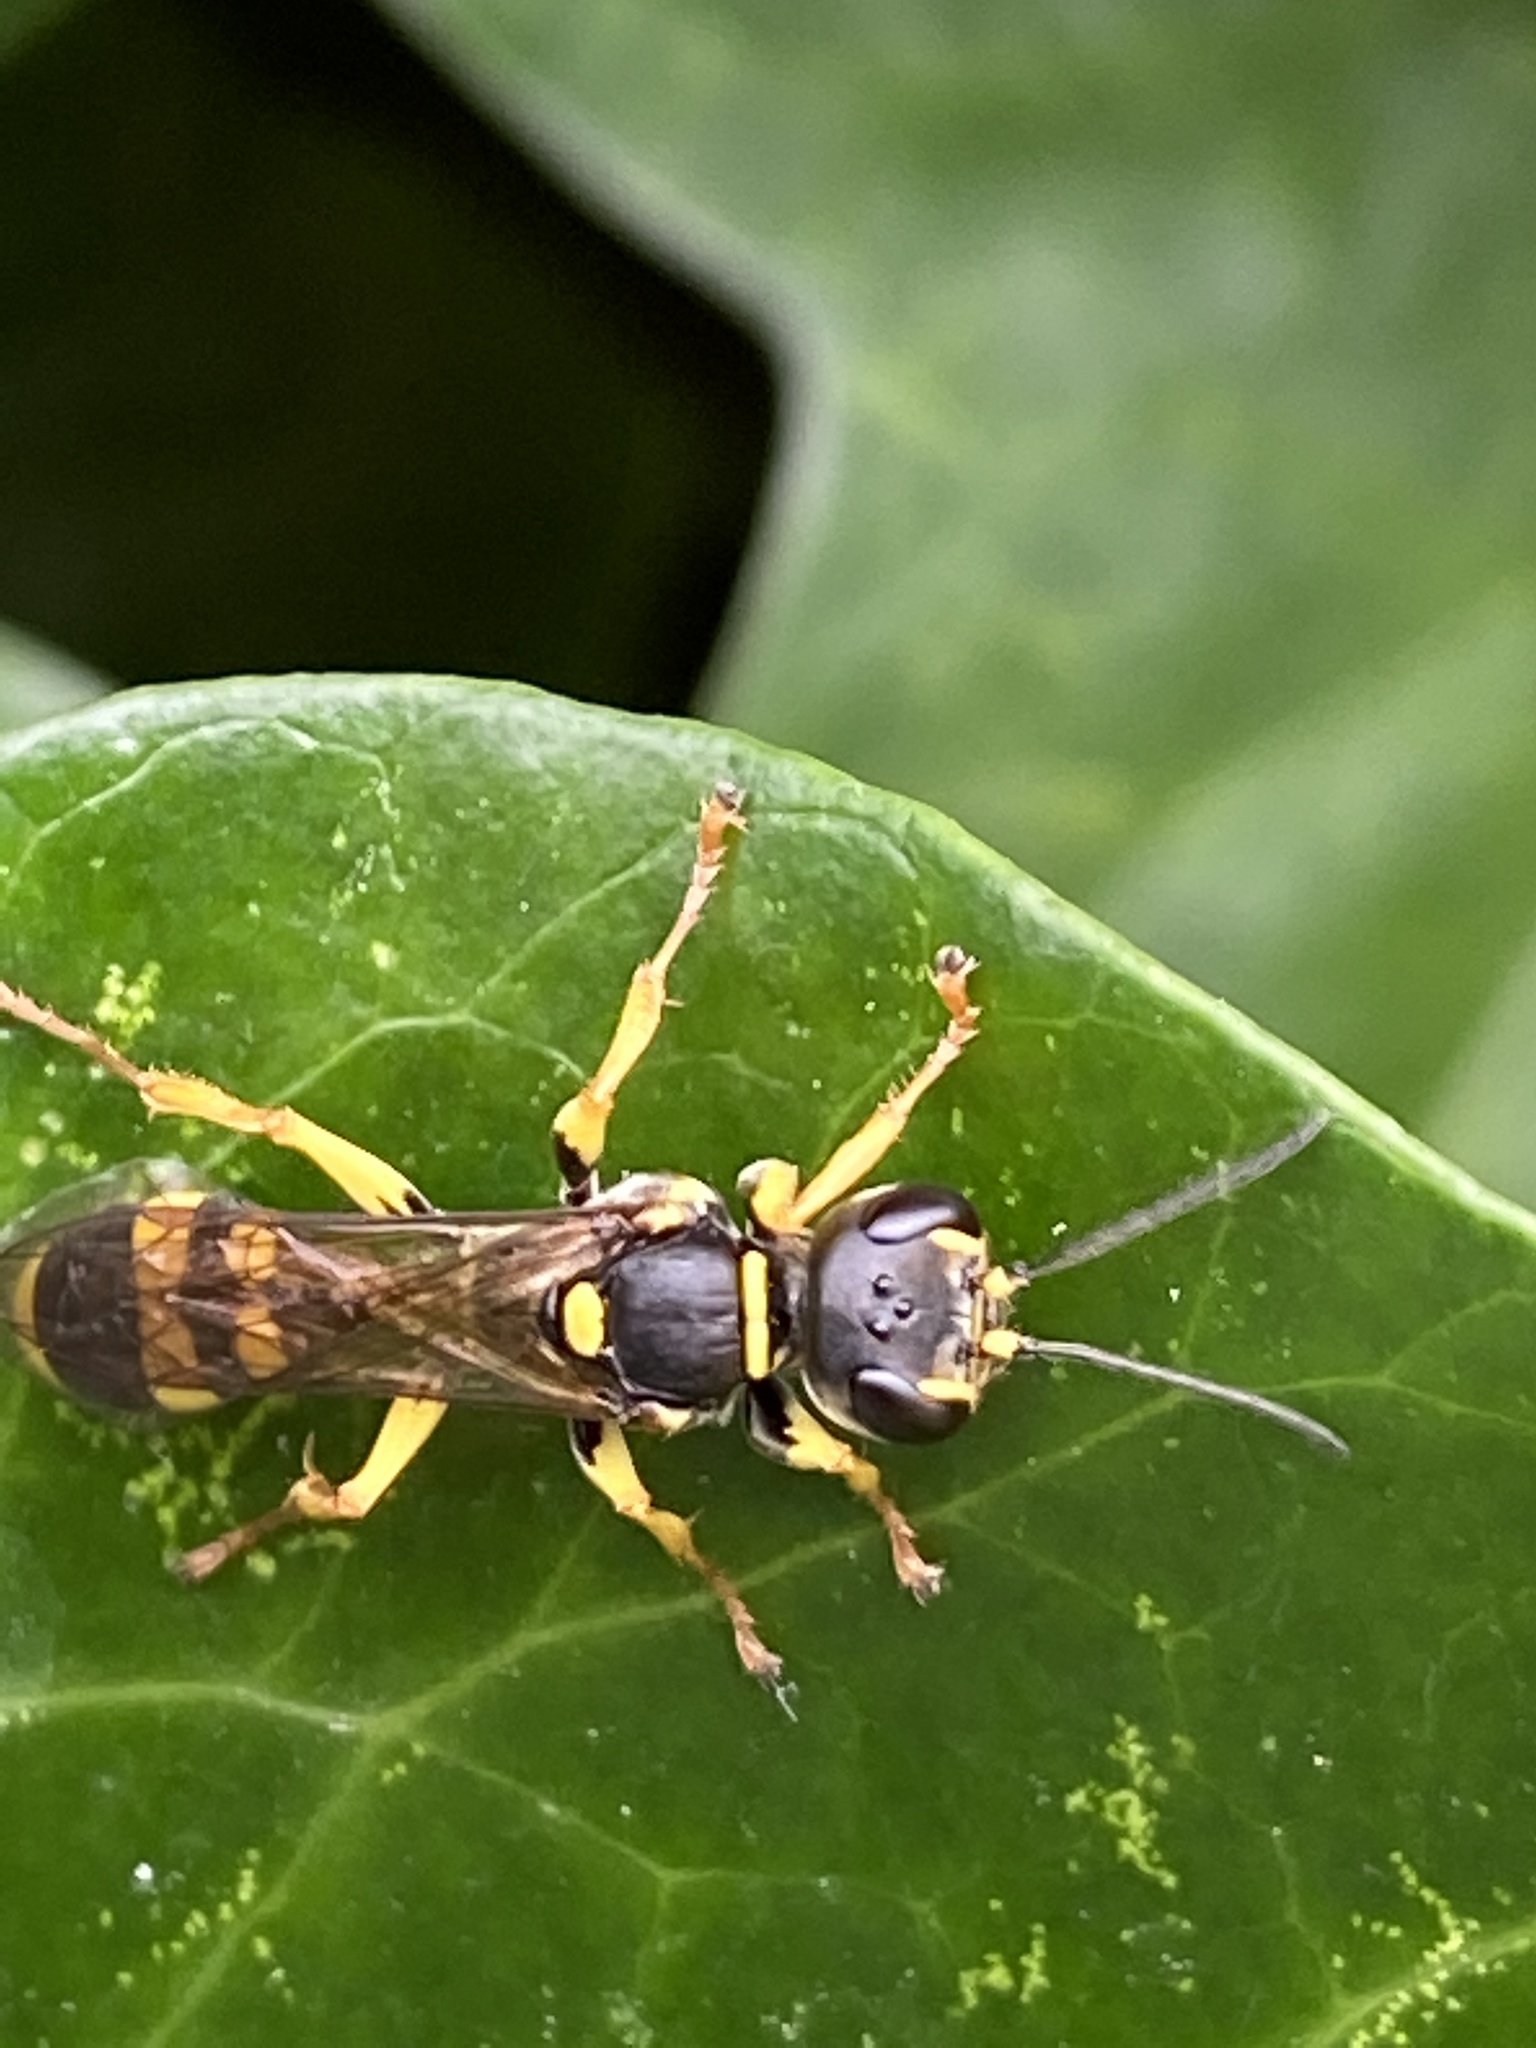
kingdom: Animalia
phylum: Arthropoda
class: Insecta
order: Hymenoptera
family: Crabronidae
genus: Mellinus
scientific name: Mellinus arvensis
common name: Field digger wasp
